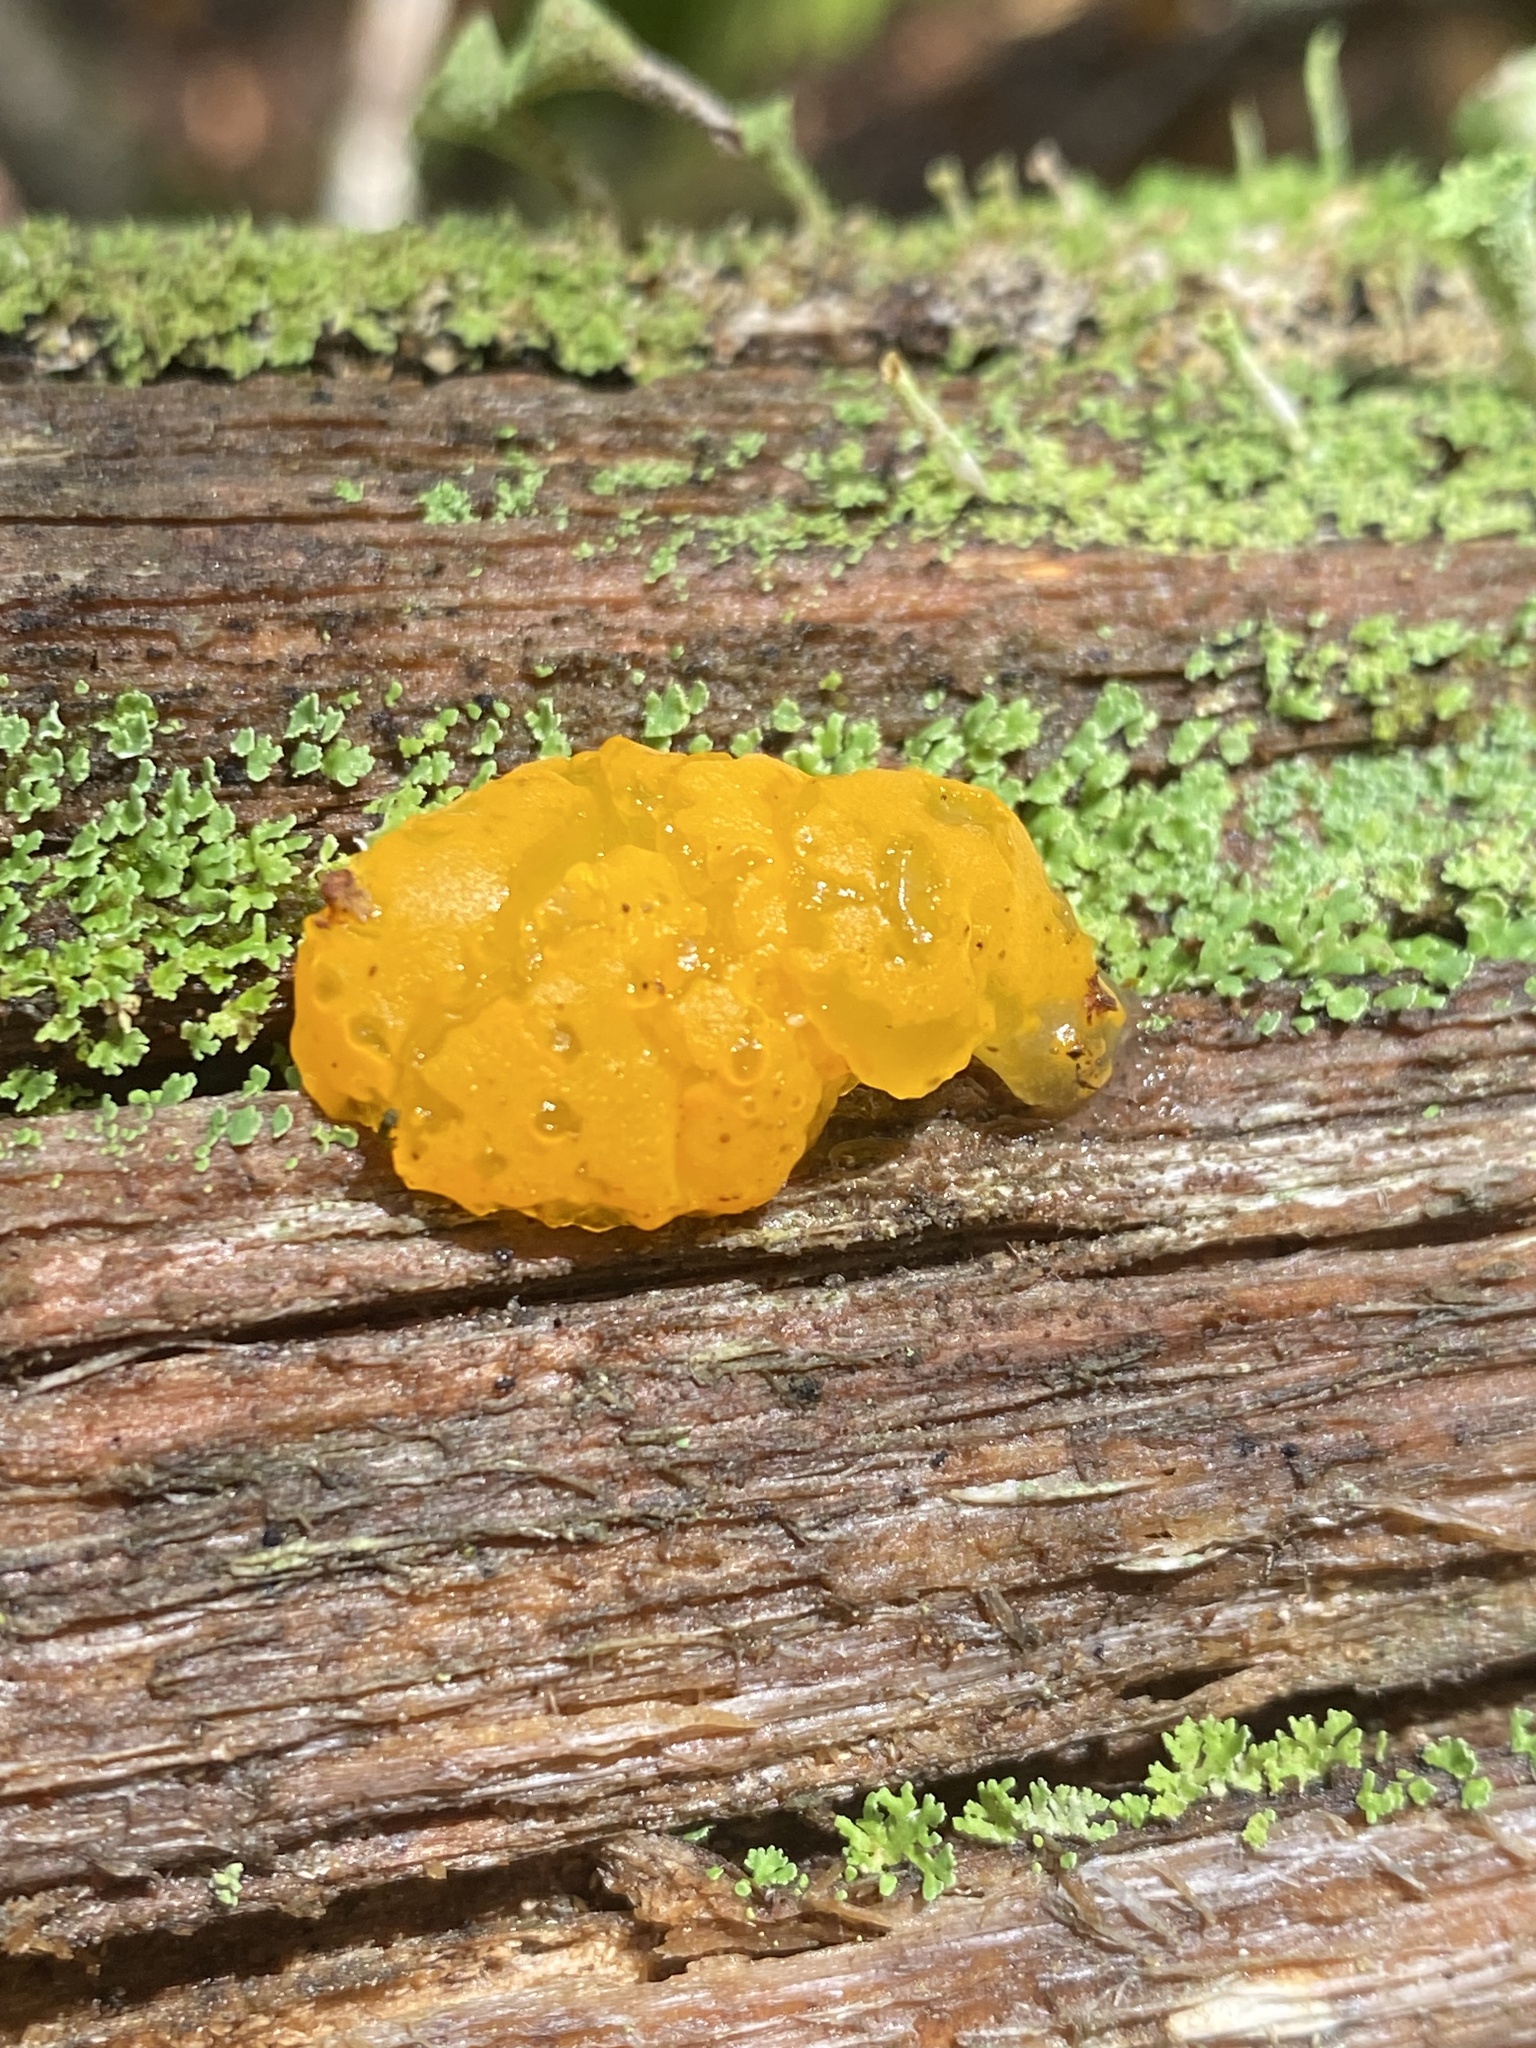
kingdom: Fungi
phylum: Basidiomycota
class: Dacrymycetes
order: Dacrymycetales
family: Dacrymycetaceae
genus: Dacrymyces
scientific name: Dacrymyces chrysospermus
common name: Orange jelly spot
